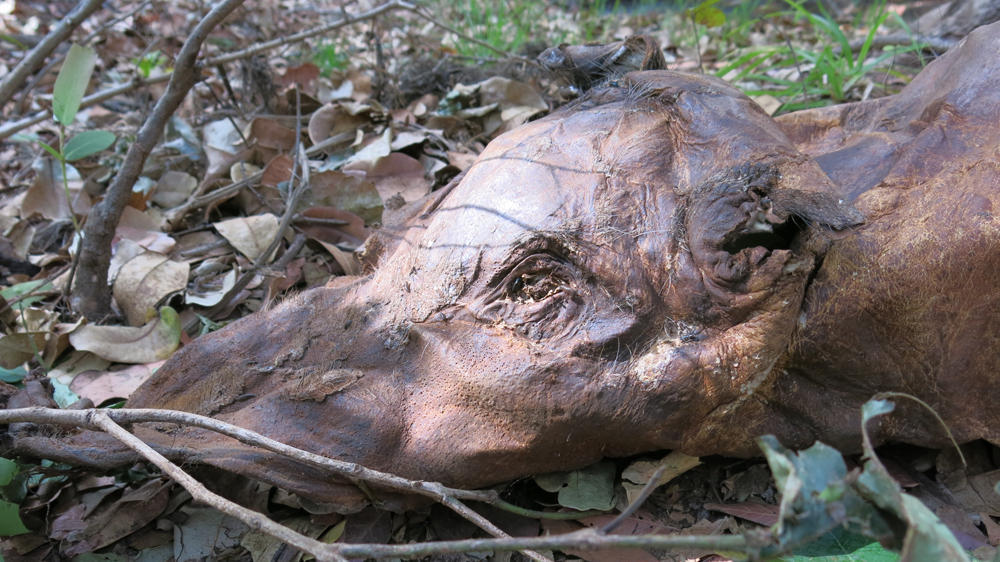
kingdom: Animalia
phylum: Chordata
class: Mammalia
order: Artiodactyla
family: Suidae
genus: Potamochoerus
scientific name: Potamochoerus larvatus
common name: Bushpig
